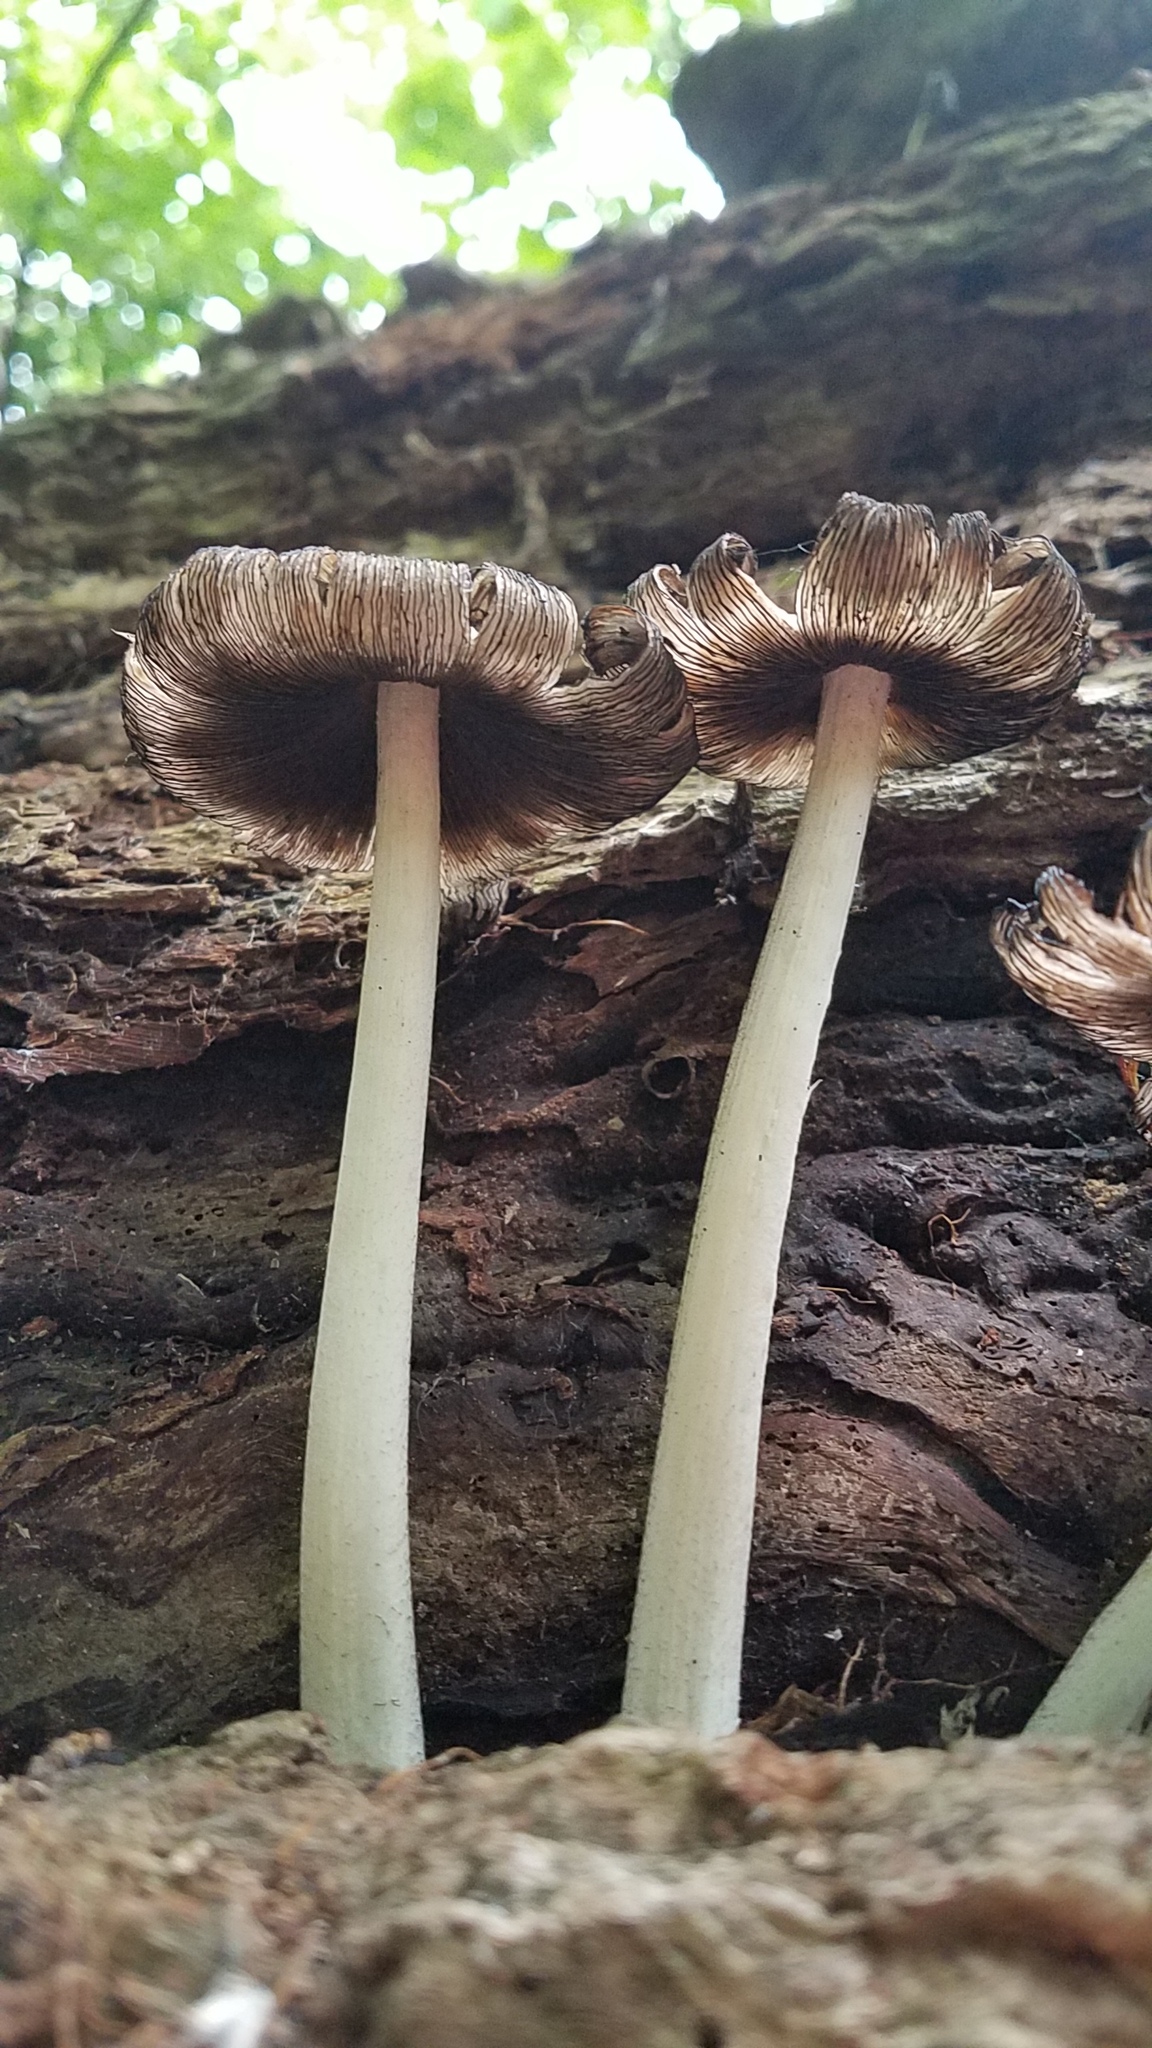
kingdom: Fungi
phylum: Basidiomycota
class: Agaricomycetes
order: Agaricales
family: Psathyrellaceae
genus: Coprinopsis
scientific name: Coprinopsis variegata
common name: Scaly ink cap
